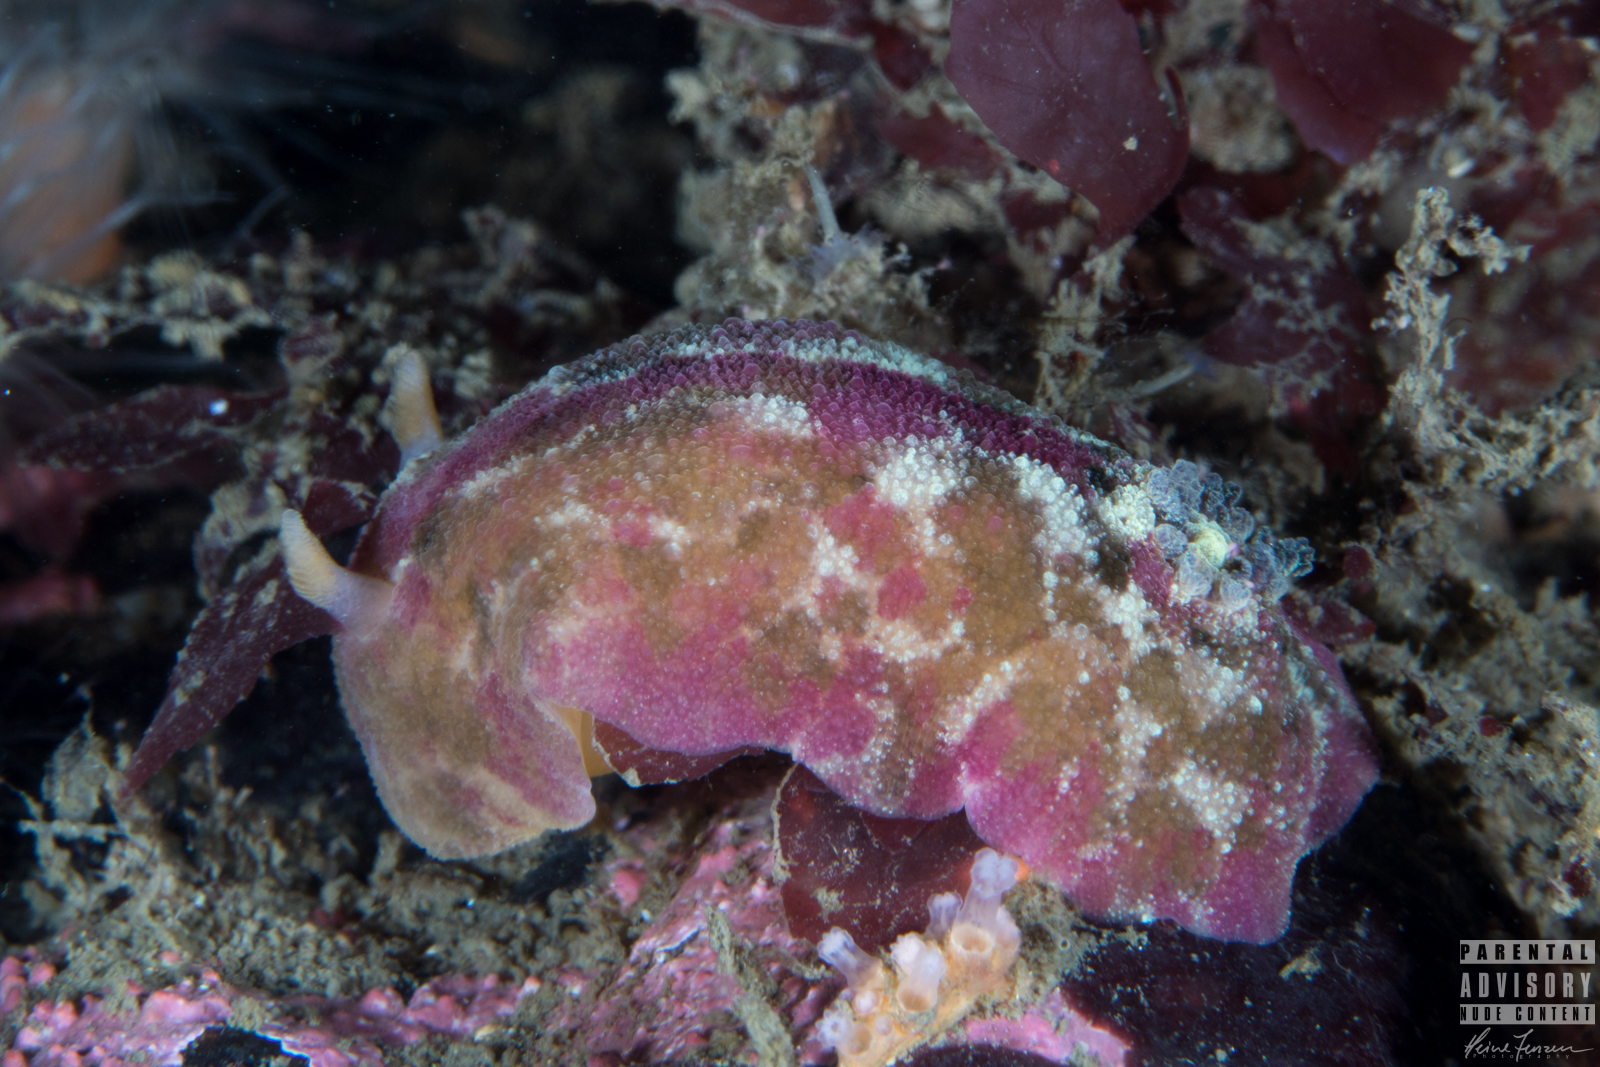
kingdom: Animalia
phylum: Mollusca
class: Gastropoda
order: Nudibranchia
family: Dorididae
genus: Doris
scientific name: Doris pseudoargus
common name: Sea lemon
